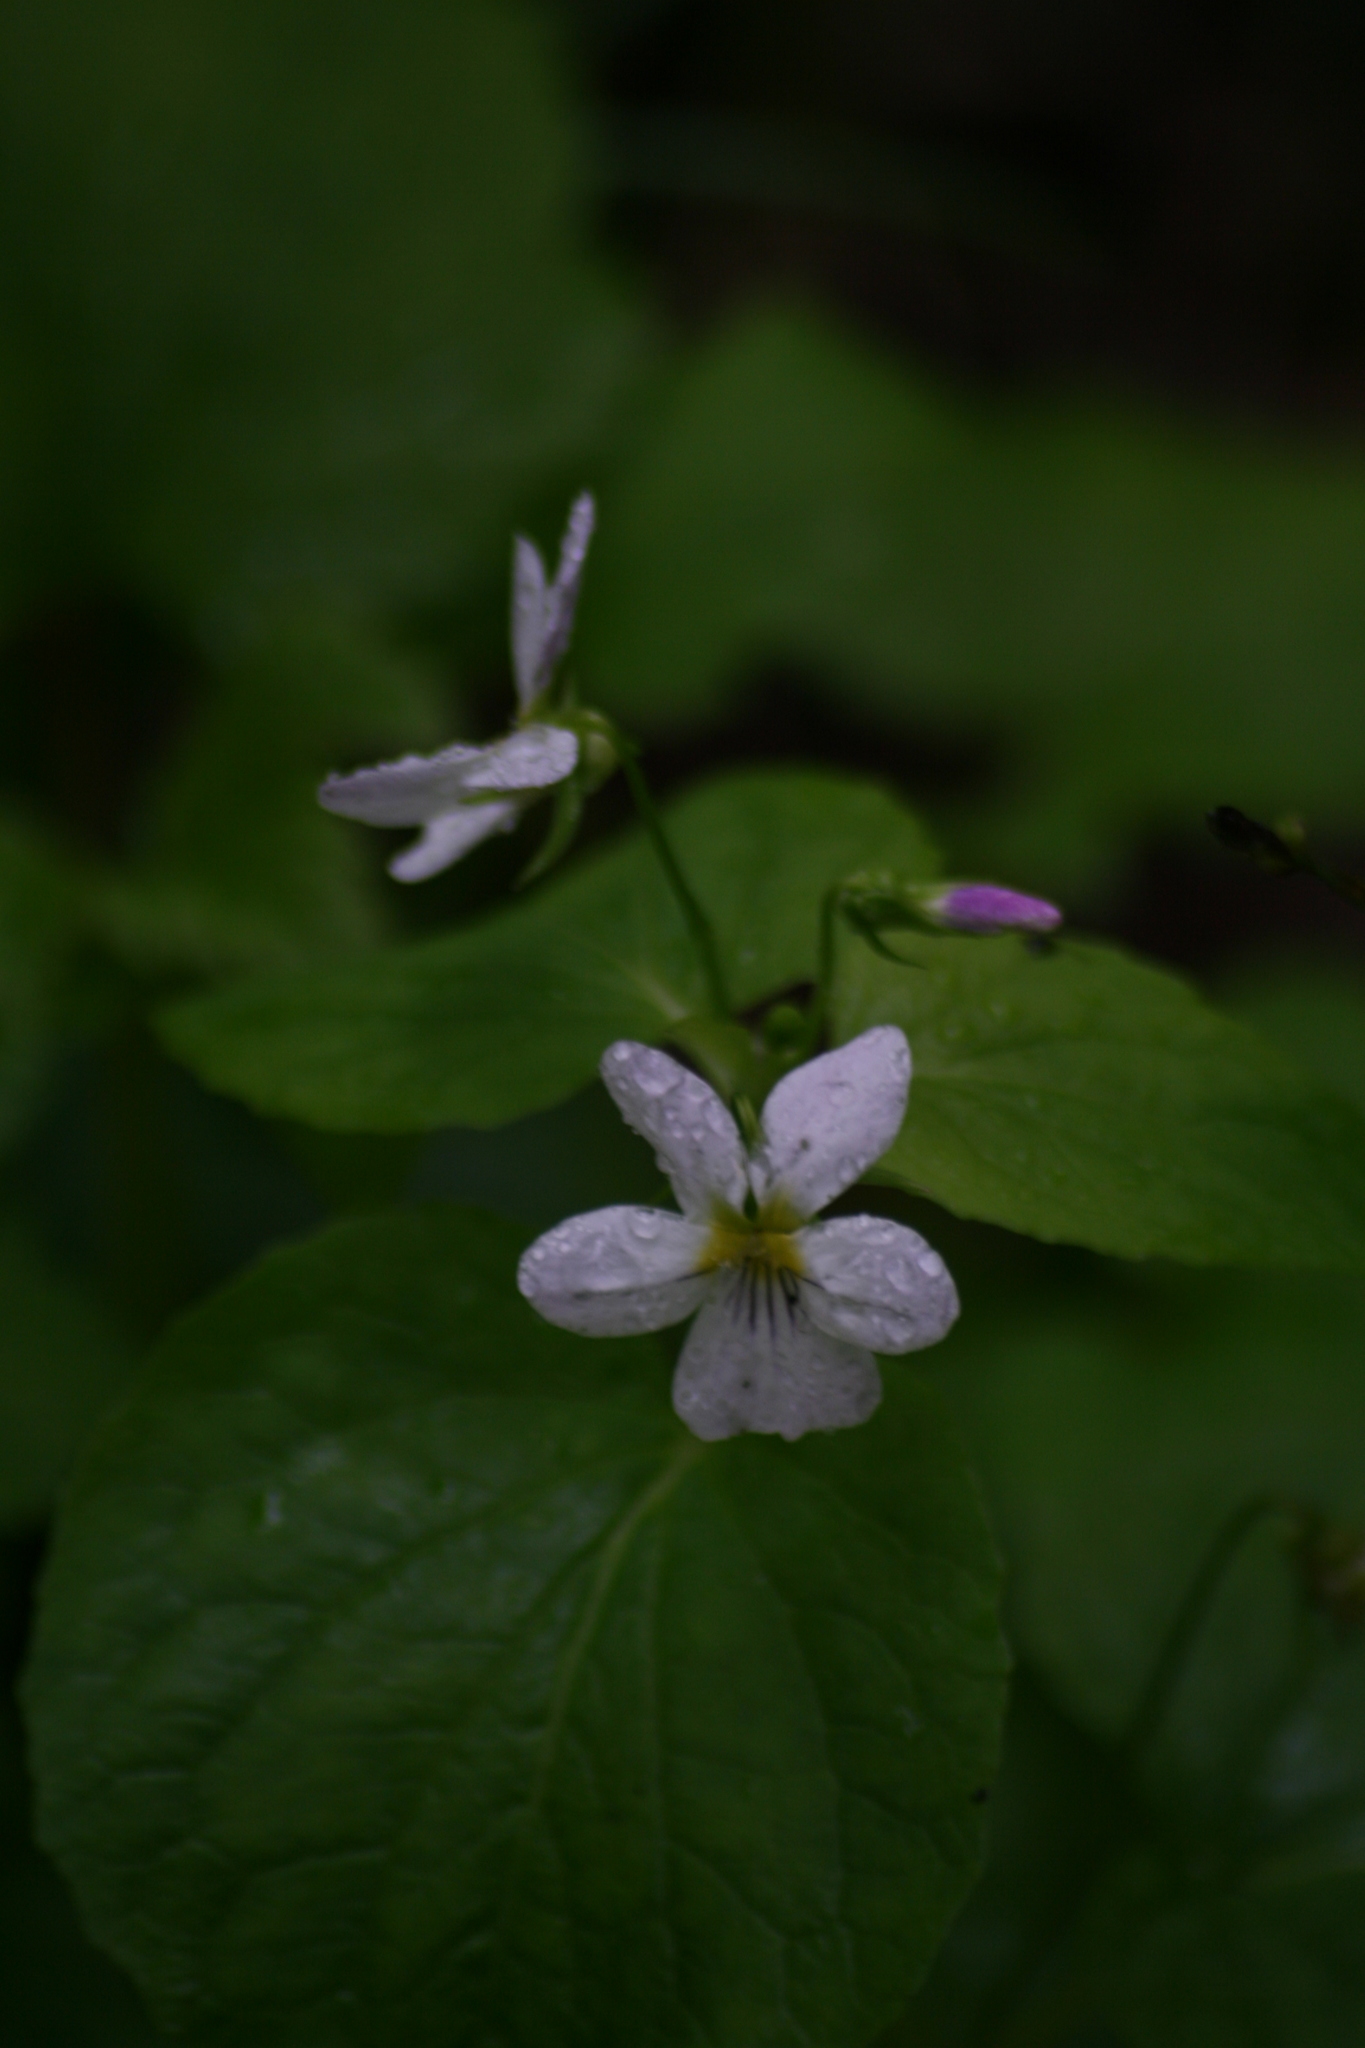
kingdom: Plantae
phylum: Tracheophyta
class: Magnoliopsida
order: Malpighiales
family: Violaceae
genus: Viola
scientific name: Viola canadensis
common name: Canada violet
